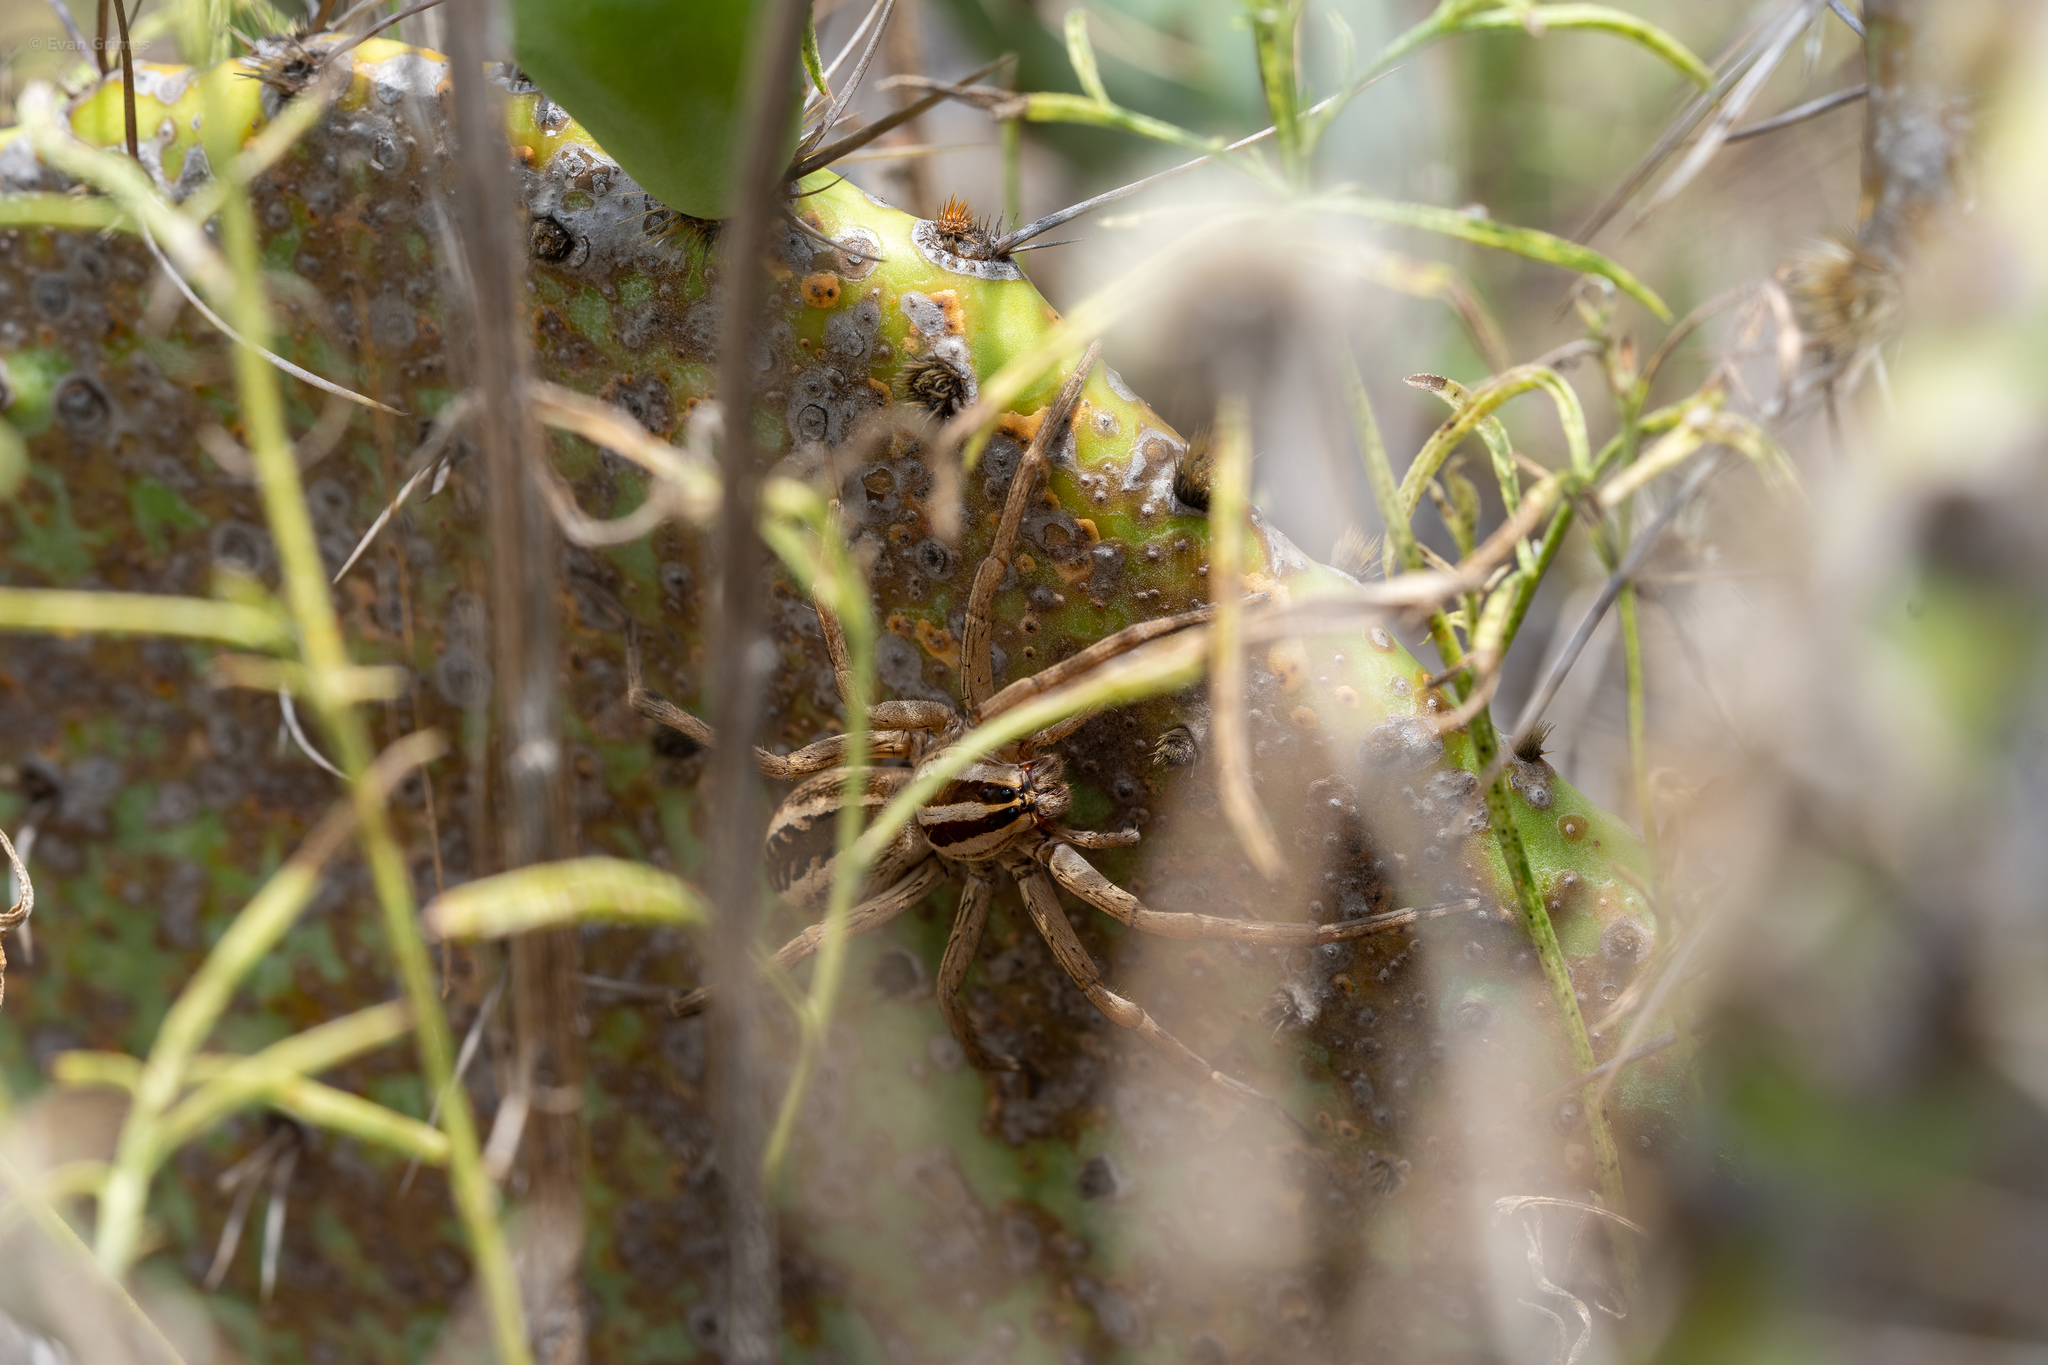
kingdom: Animalia
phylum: Arthropoda
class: Arachnida
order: Araneae
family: Lycosidae
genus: Rabidosa
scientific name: Rabidosa rabida
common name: Rabid wolf spider
